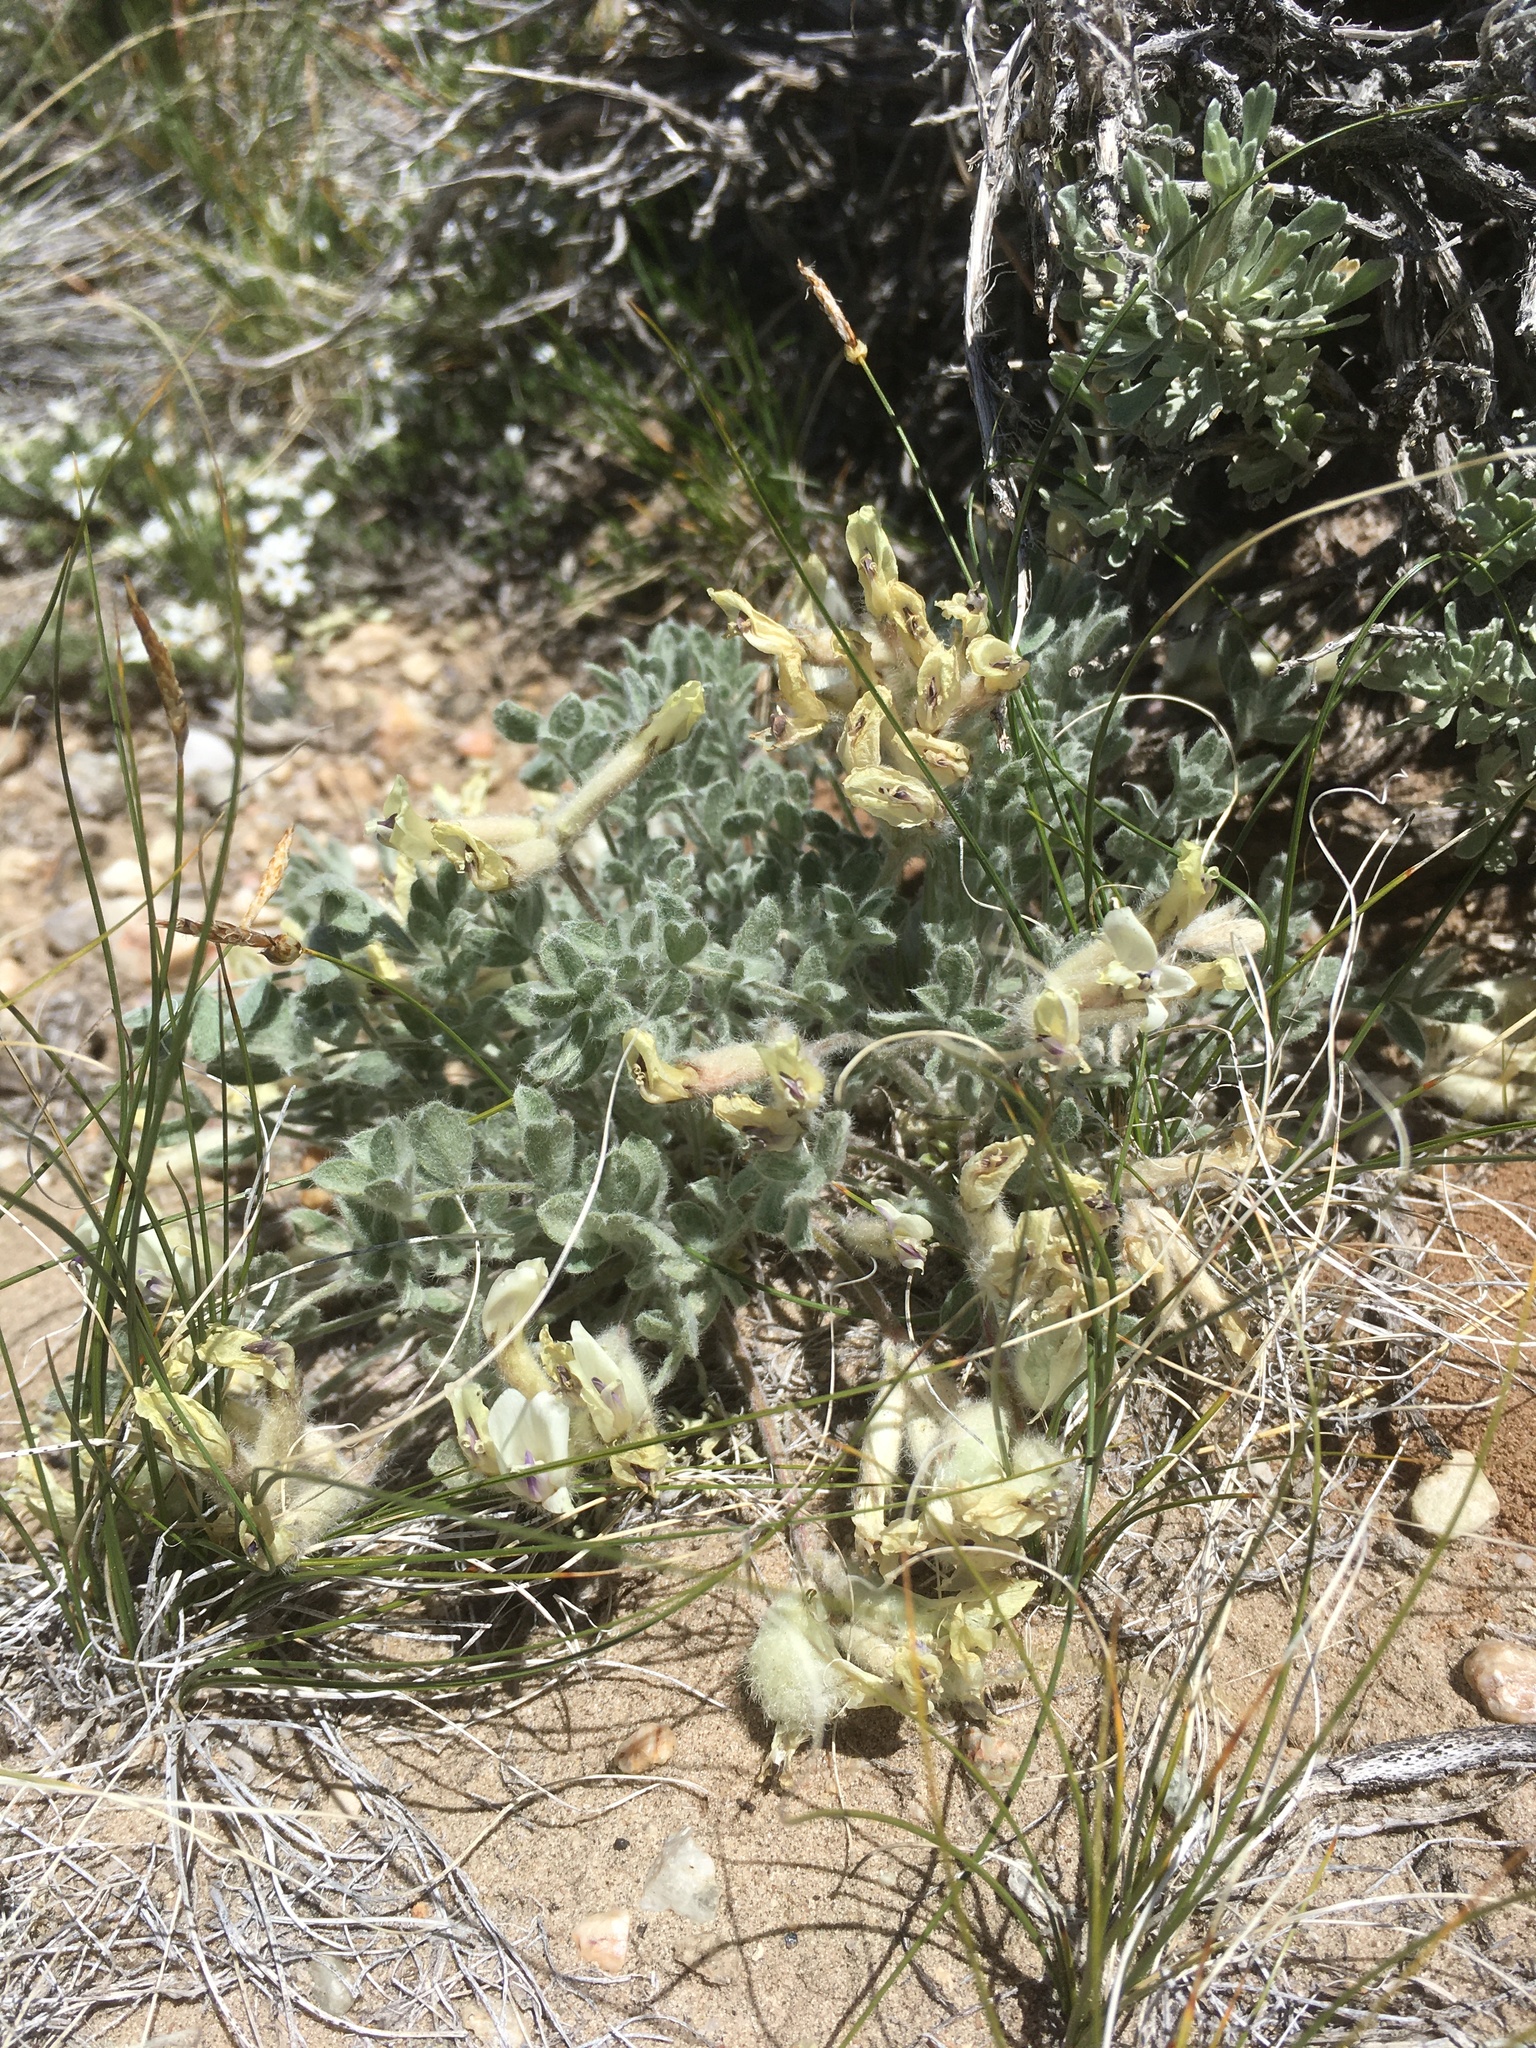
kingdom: Plantae
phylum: Tracheophyta
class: Magnoliopsida
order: Fabales
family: Fabaceae
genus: Astragalus
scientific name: Astragalus purshii
